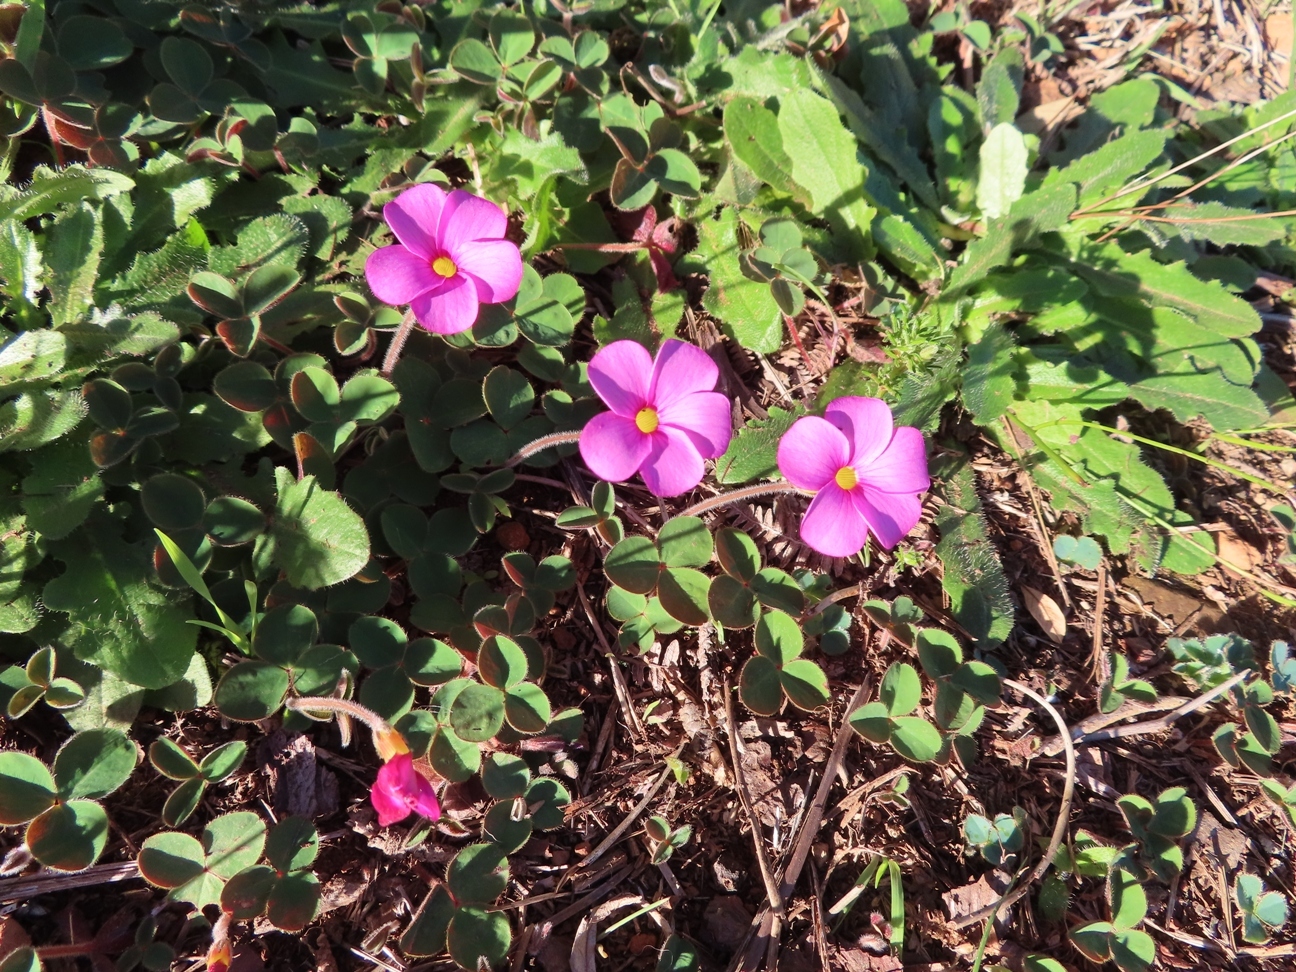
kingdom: Plantae
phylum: Tracheophyta
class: Magnoliopsida
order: Oxalidales
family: Oxalidaceae
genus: Oxalis
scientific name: Oxalis eckloniana
